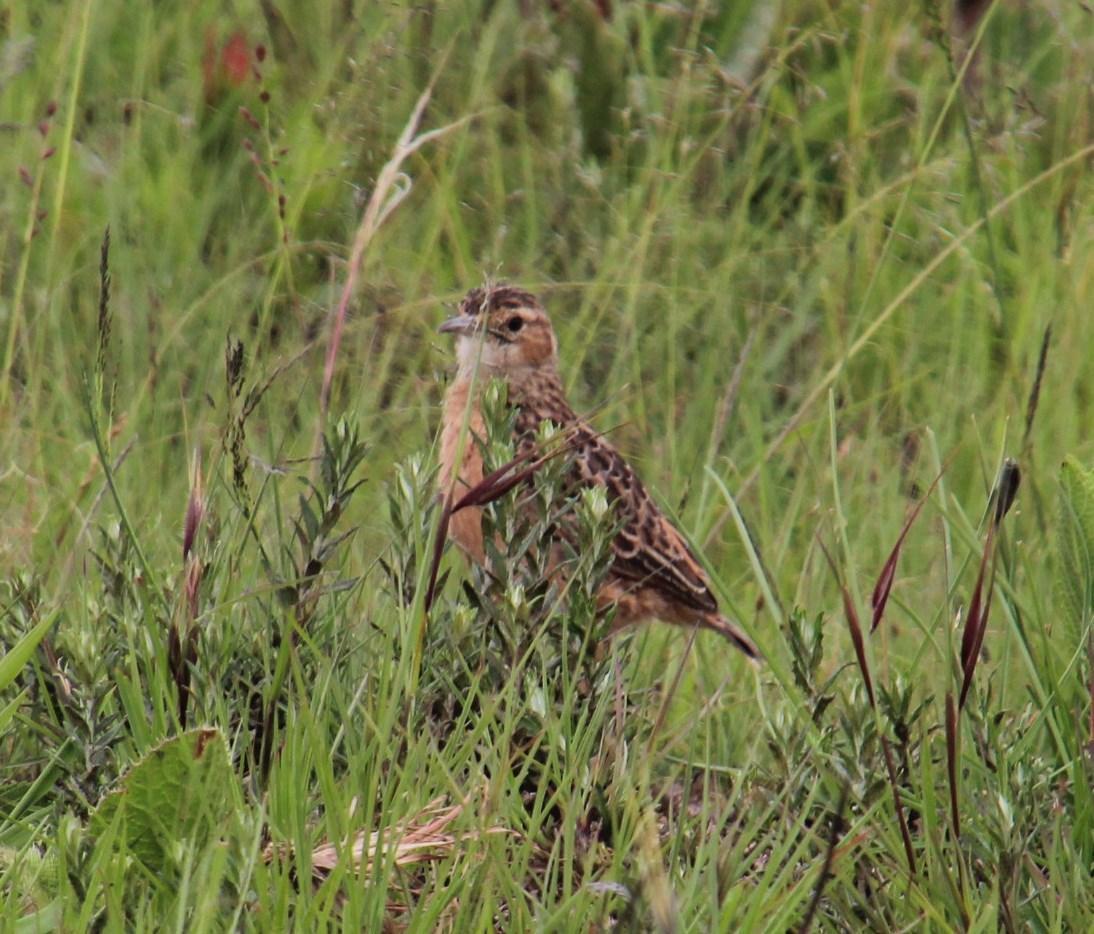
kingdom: Animalia
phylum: Chordata
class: Aves
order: Passeriformes
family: Alaudidae
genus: Chersomanes
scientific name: Chersomanes albofasciata
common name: Spike-heeled lark
